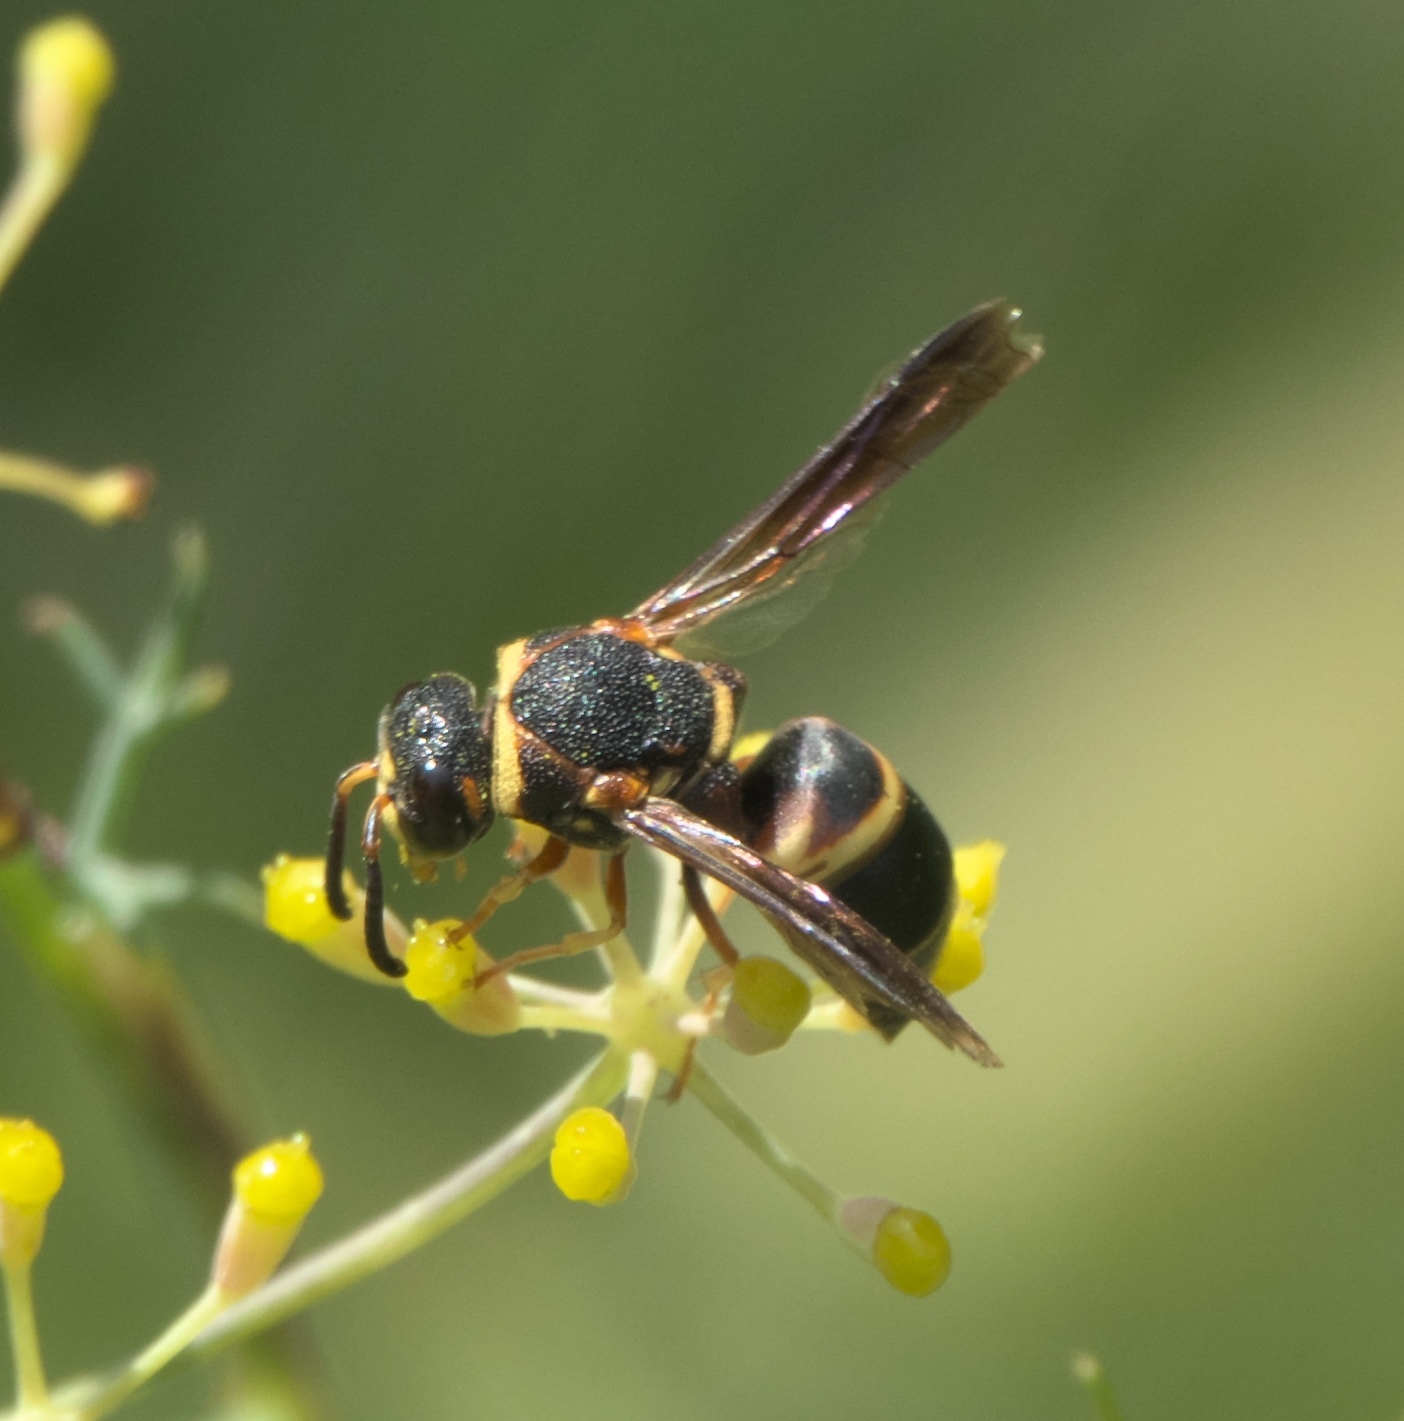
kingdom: Animalia
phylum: Arthropoda
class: Insecta
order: Hymenoptera
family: Eumenidae
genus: Euodynerus
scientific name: Euodynerus hidalgo
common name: Wasp
